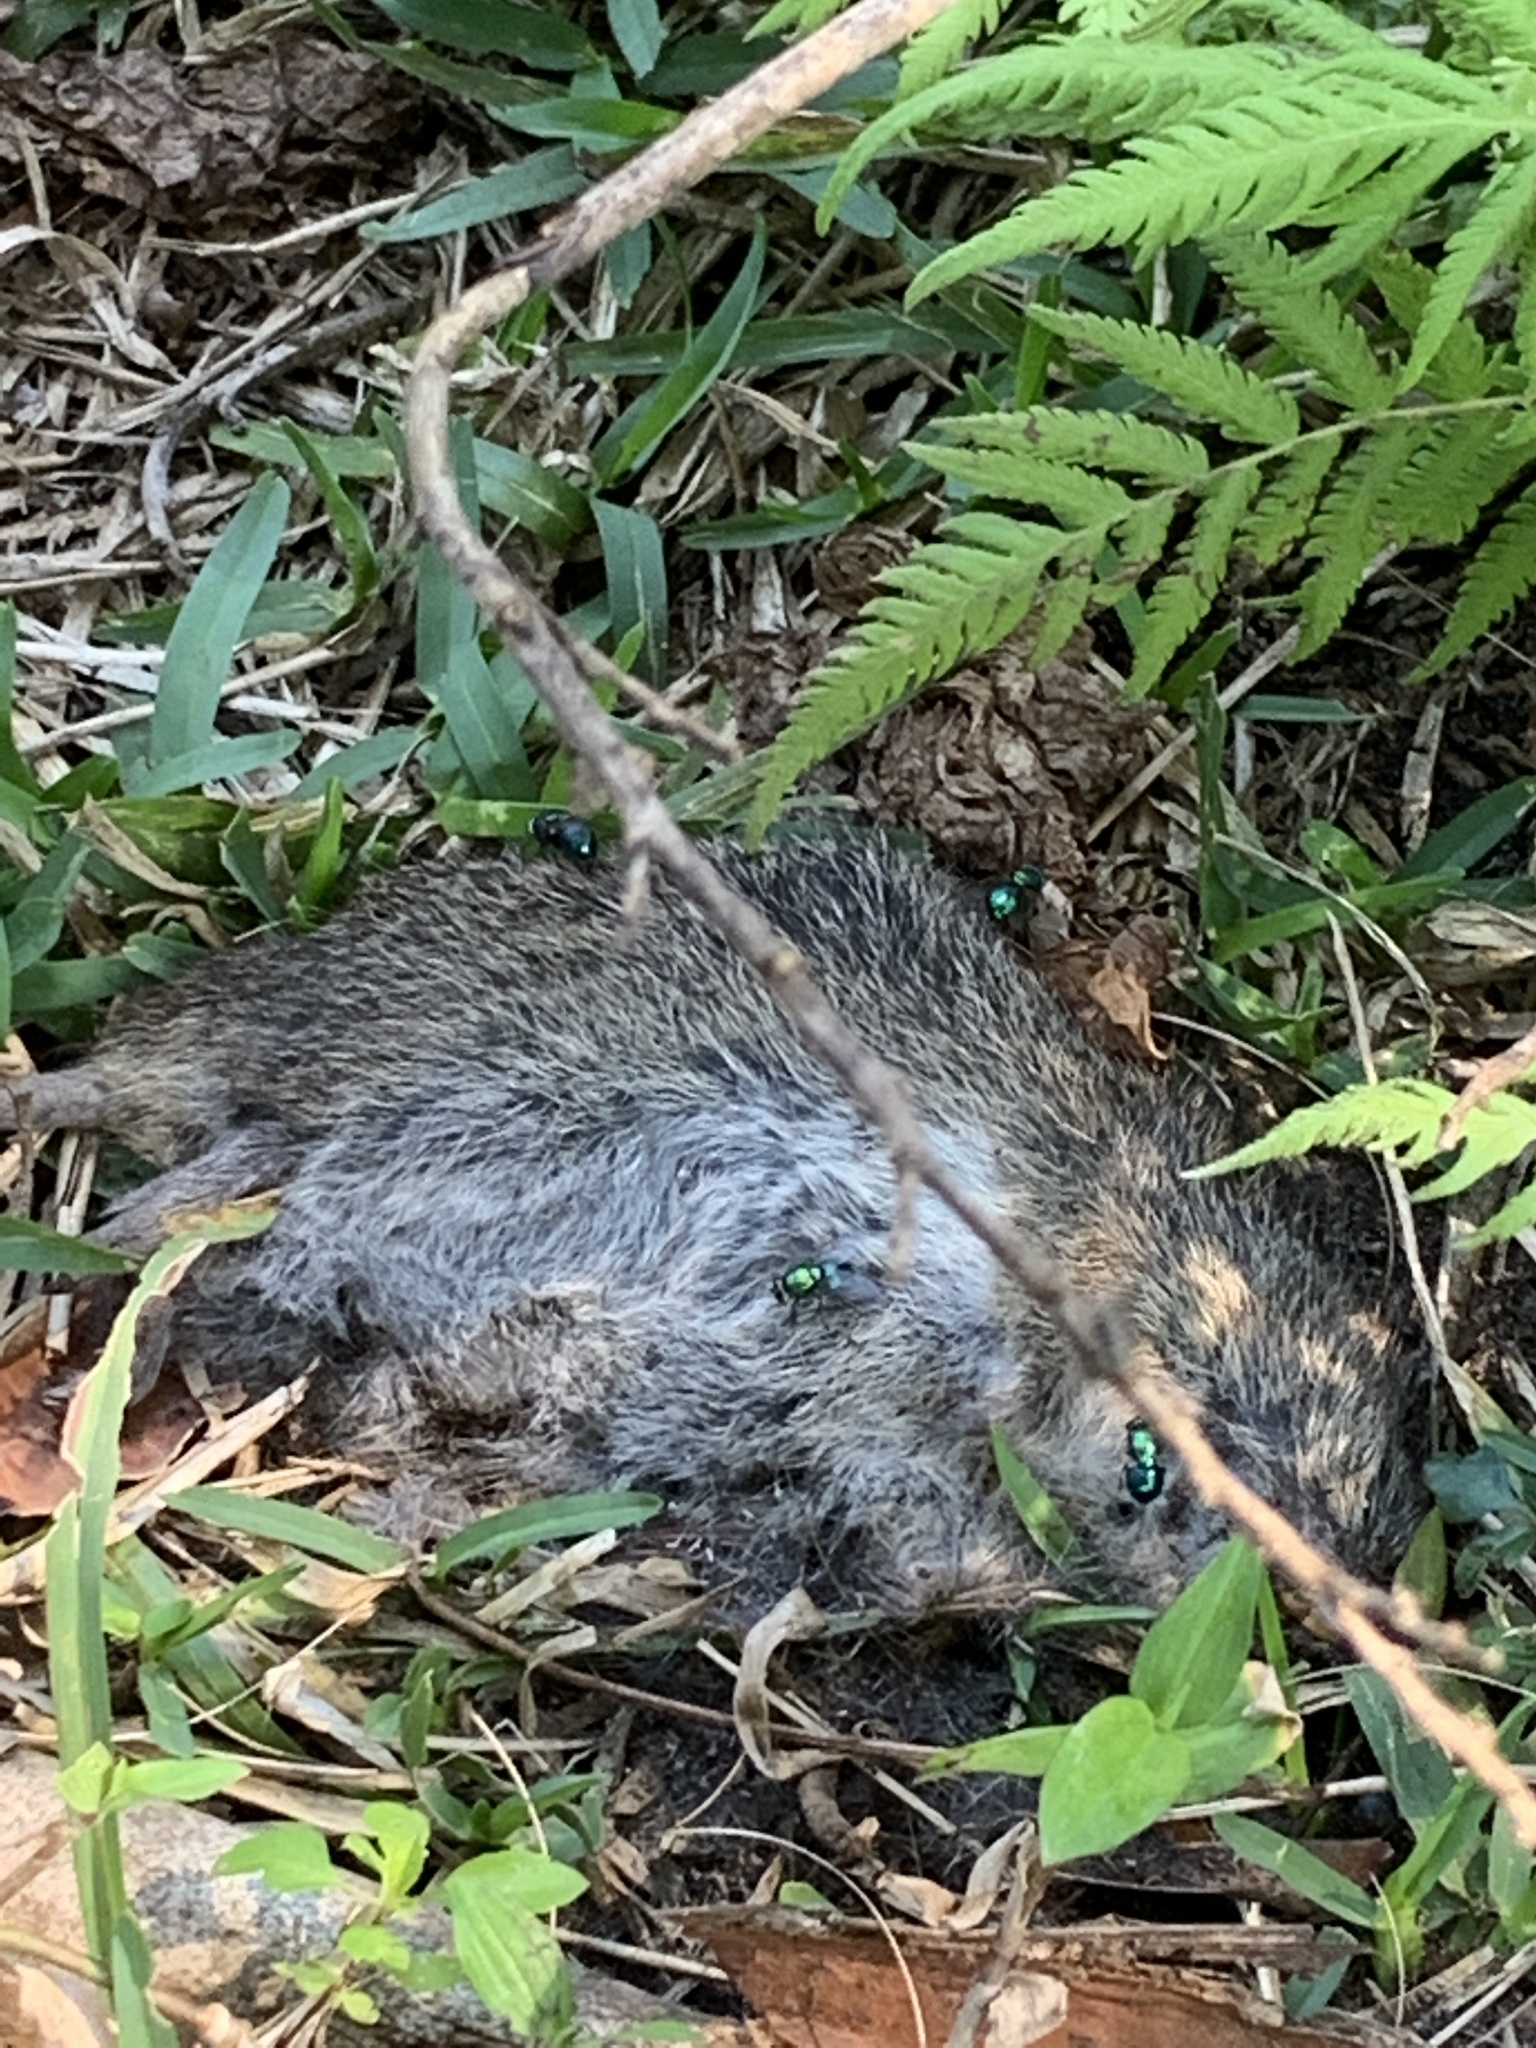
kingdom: Animalia
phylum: Chordata
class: Mammalia
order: Rodentia
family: Cricetidae
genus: Sigmodon
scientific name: Sigmodon hispidus
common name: Hispid cotton rat
